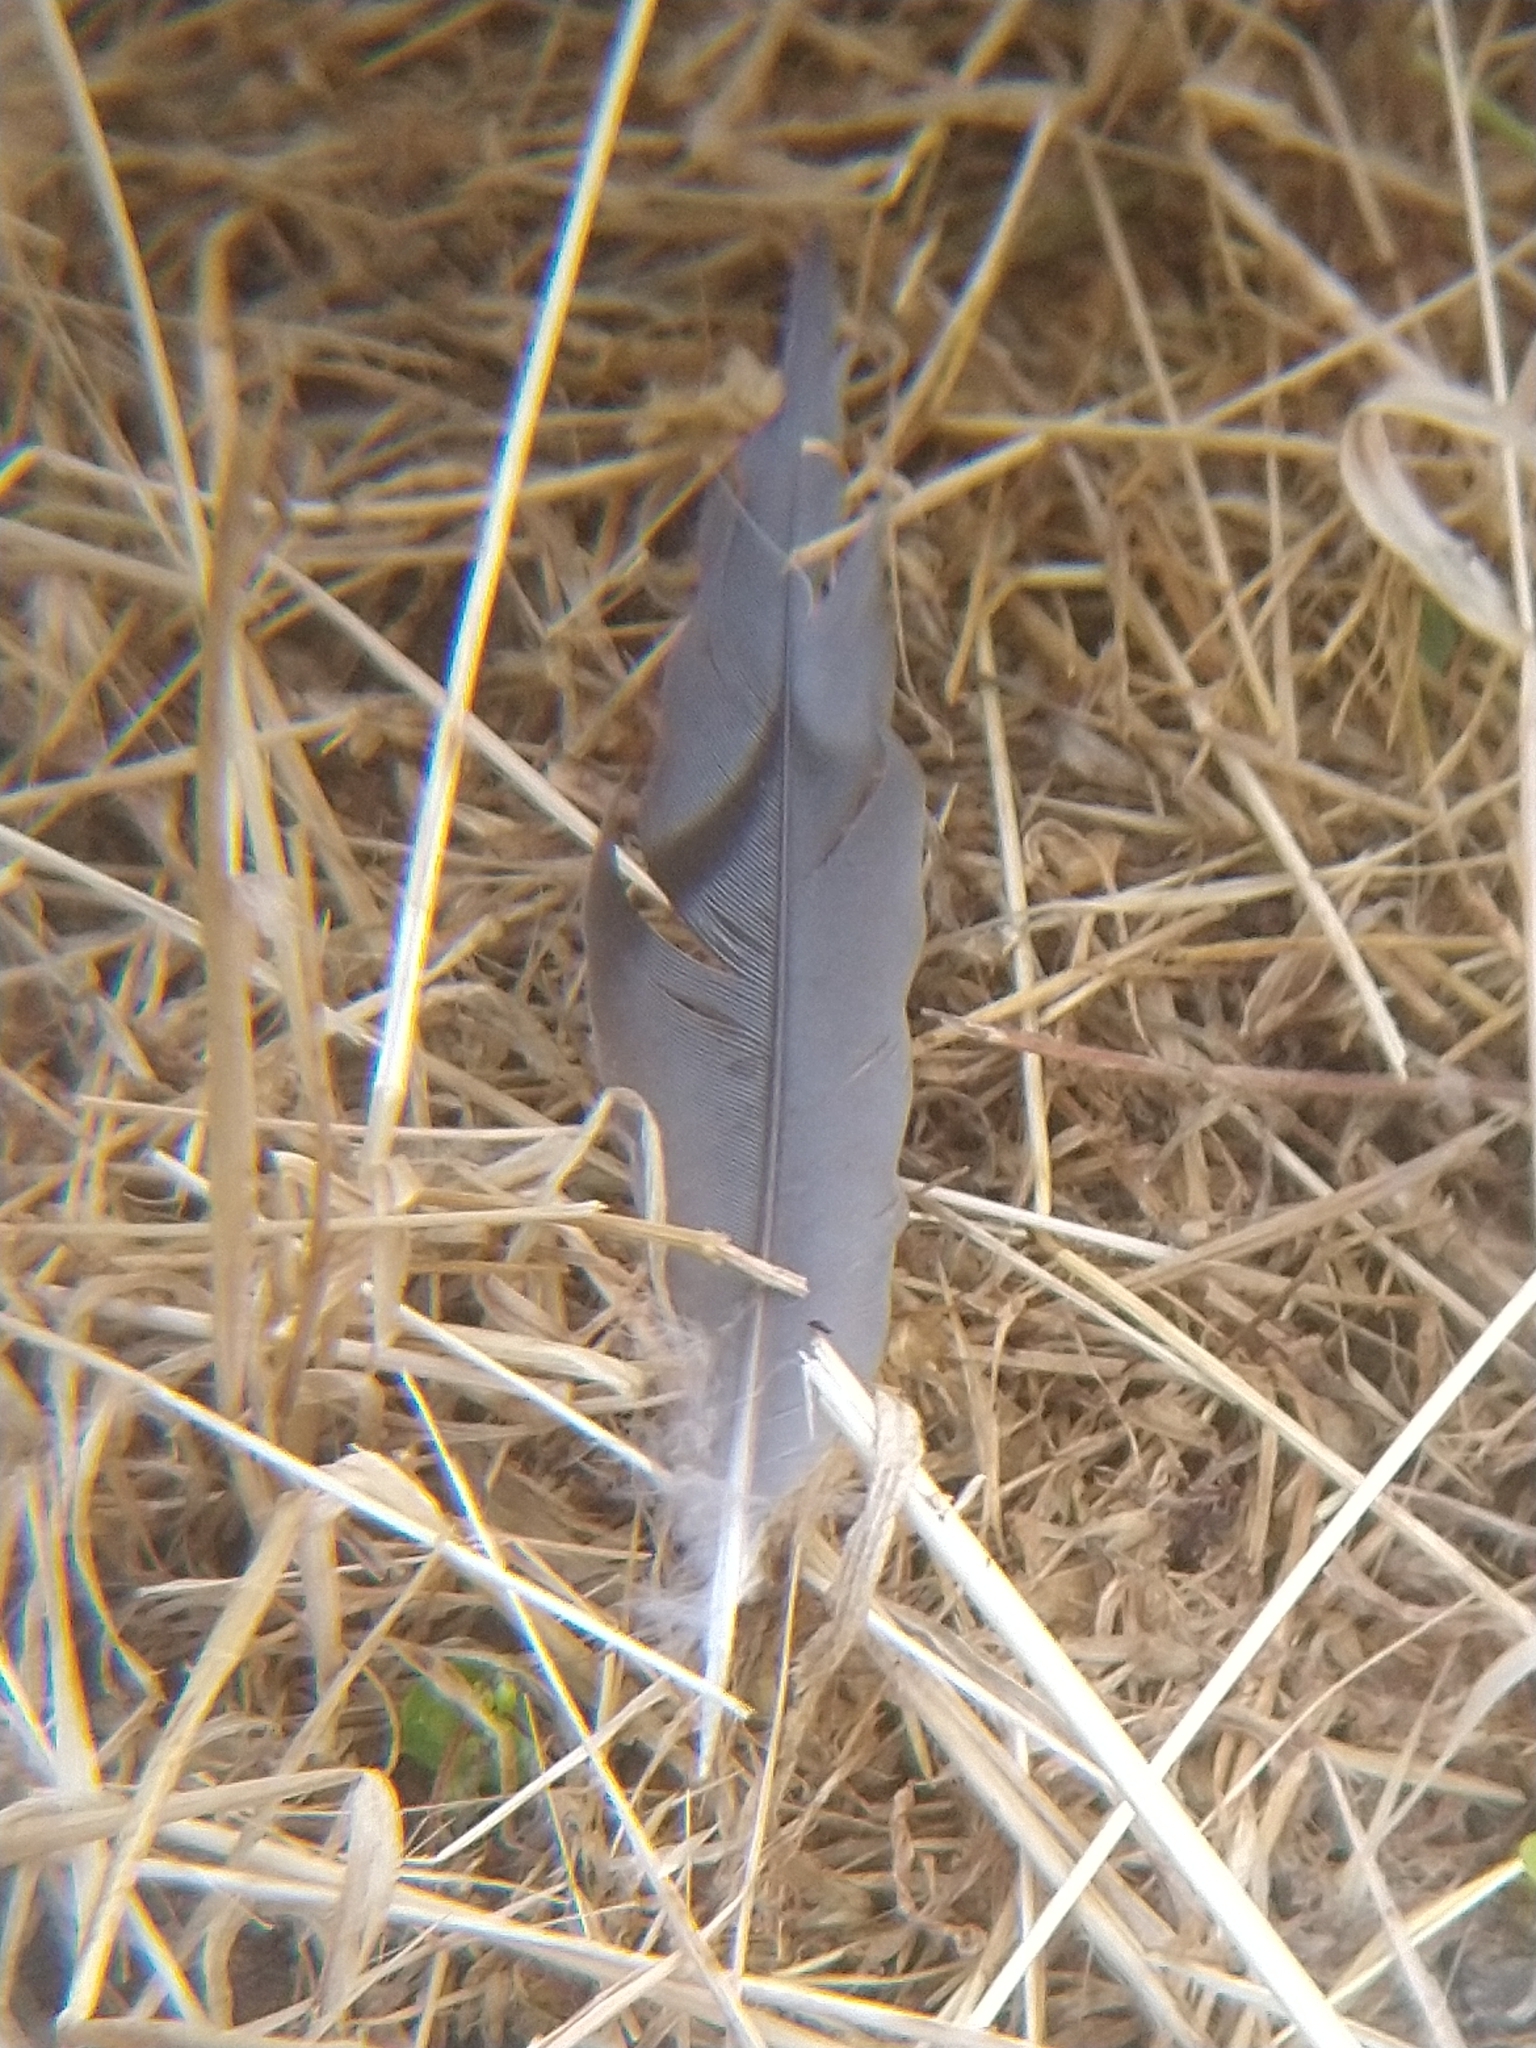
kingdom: Animalia
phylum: Chordata
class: Aves
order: Columbiformes
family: Columbidae
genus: Zenaida
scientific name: Zenaida macroura
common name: Mourning dove
